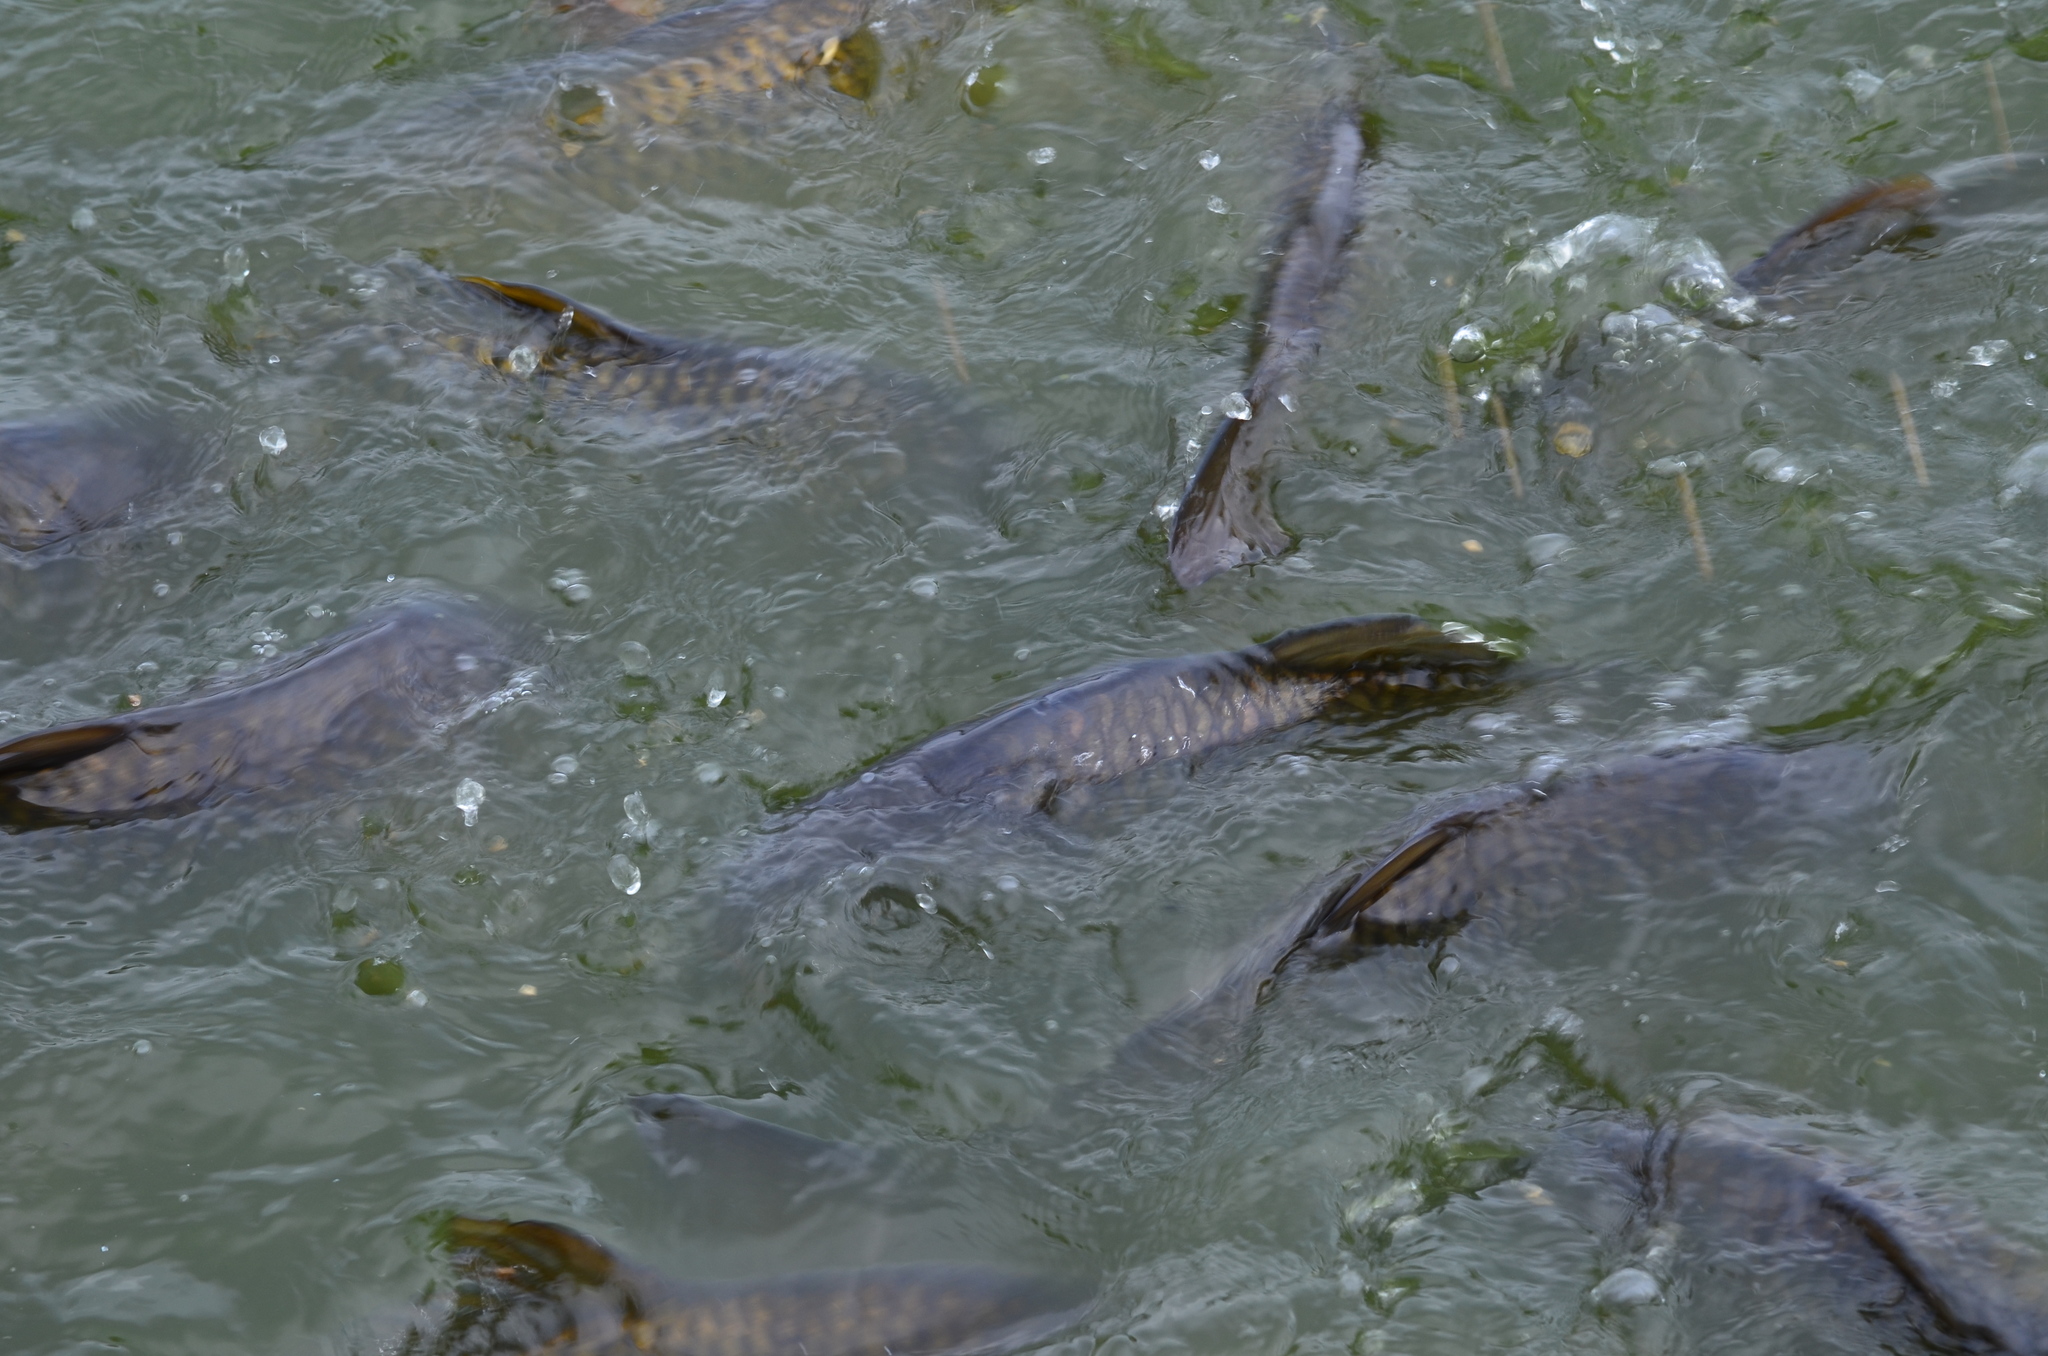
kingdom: Animalia
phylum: Chordata
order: Cypriniformes
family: Cyprinidae
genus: Cyprinus
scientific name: Cyprinus carpio
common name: Common carp
